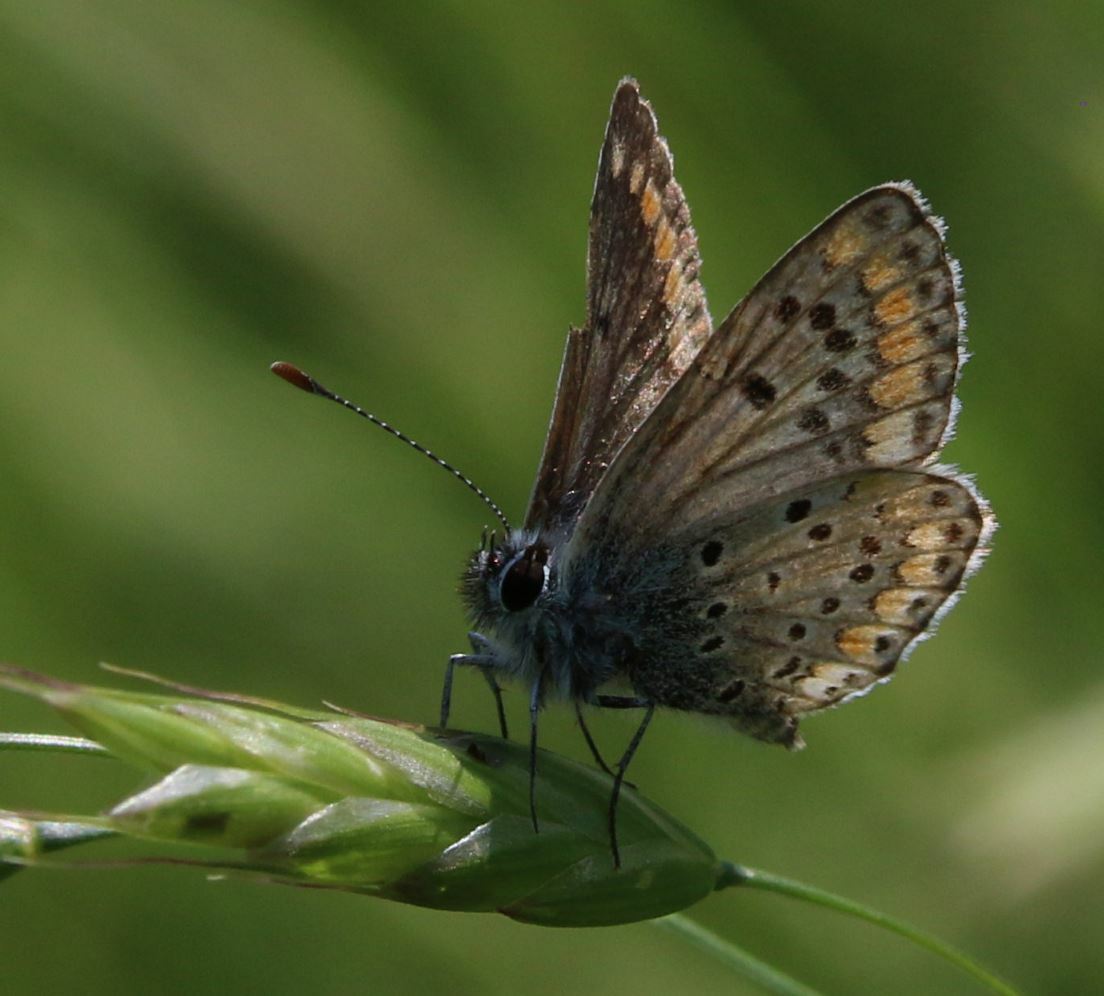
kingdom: Animalia
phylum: Arthropoda
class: Insecta
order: Lepidoptera
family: Lycaenidae
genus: Aricia
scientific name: Aricia agestis
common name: Brown argus
